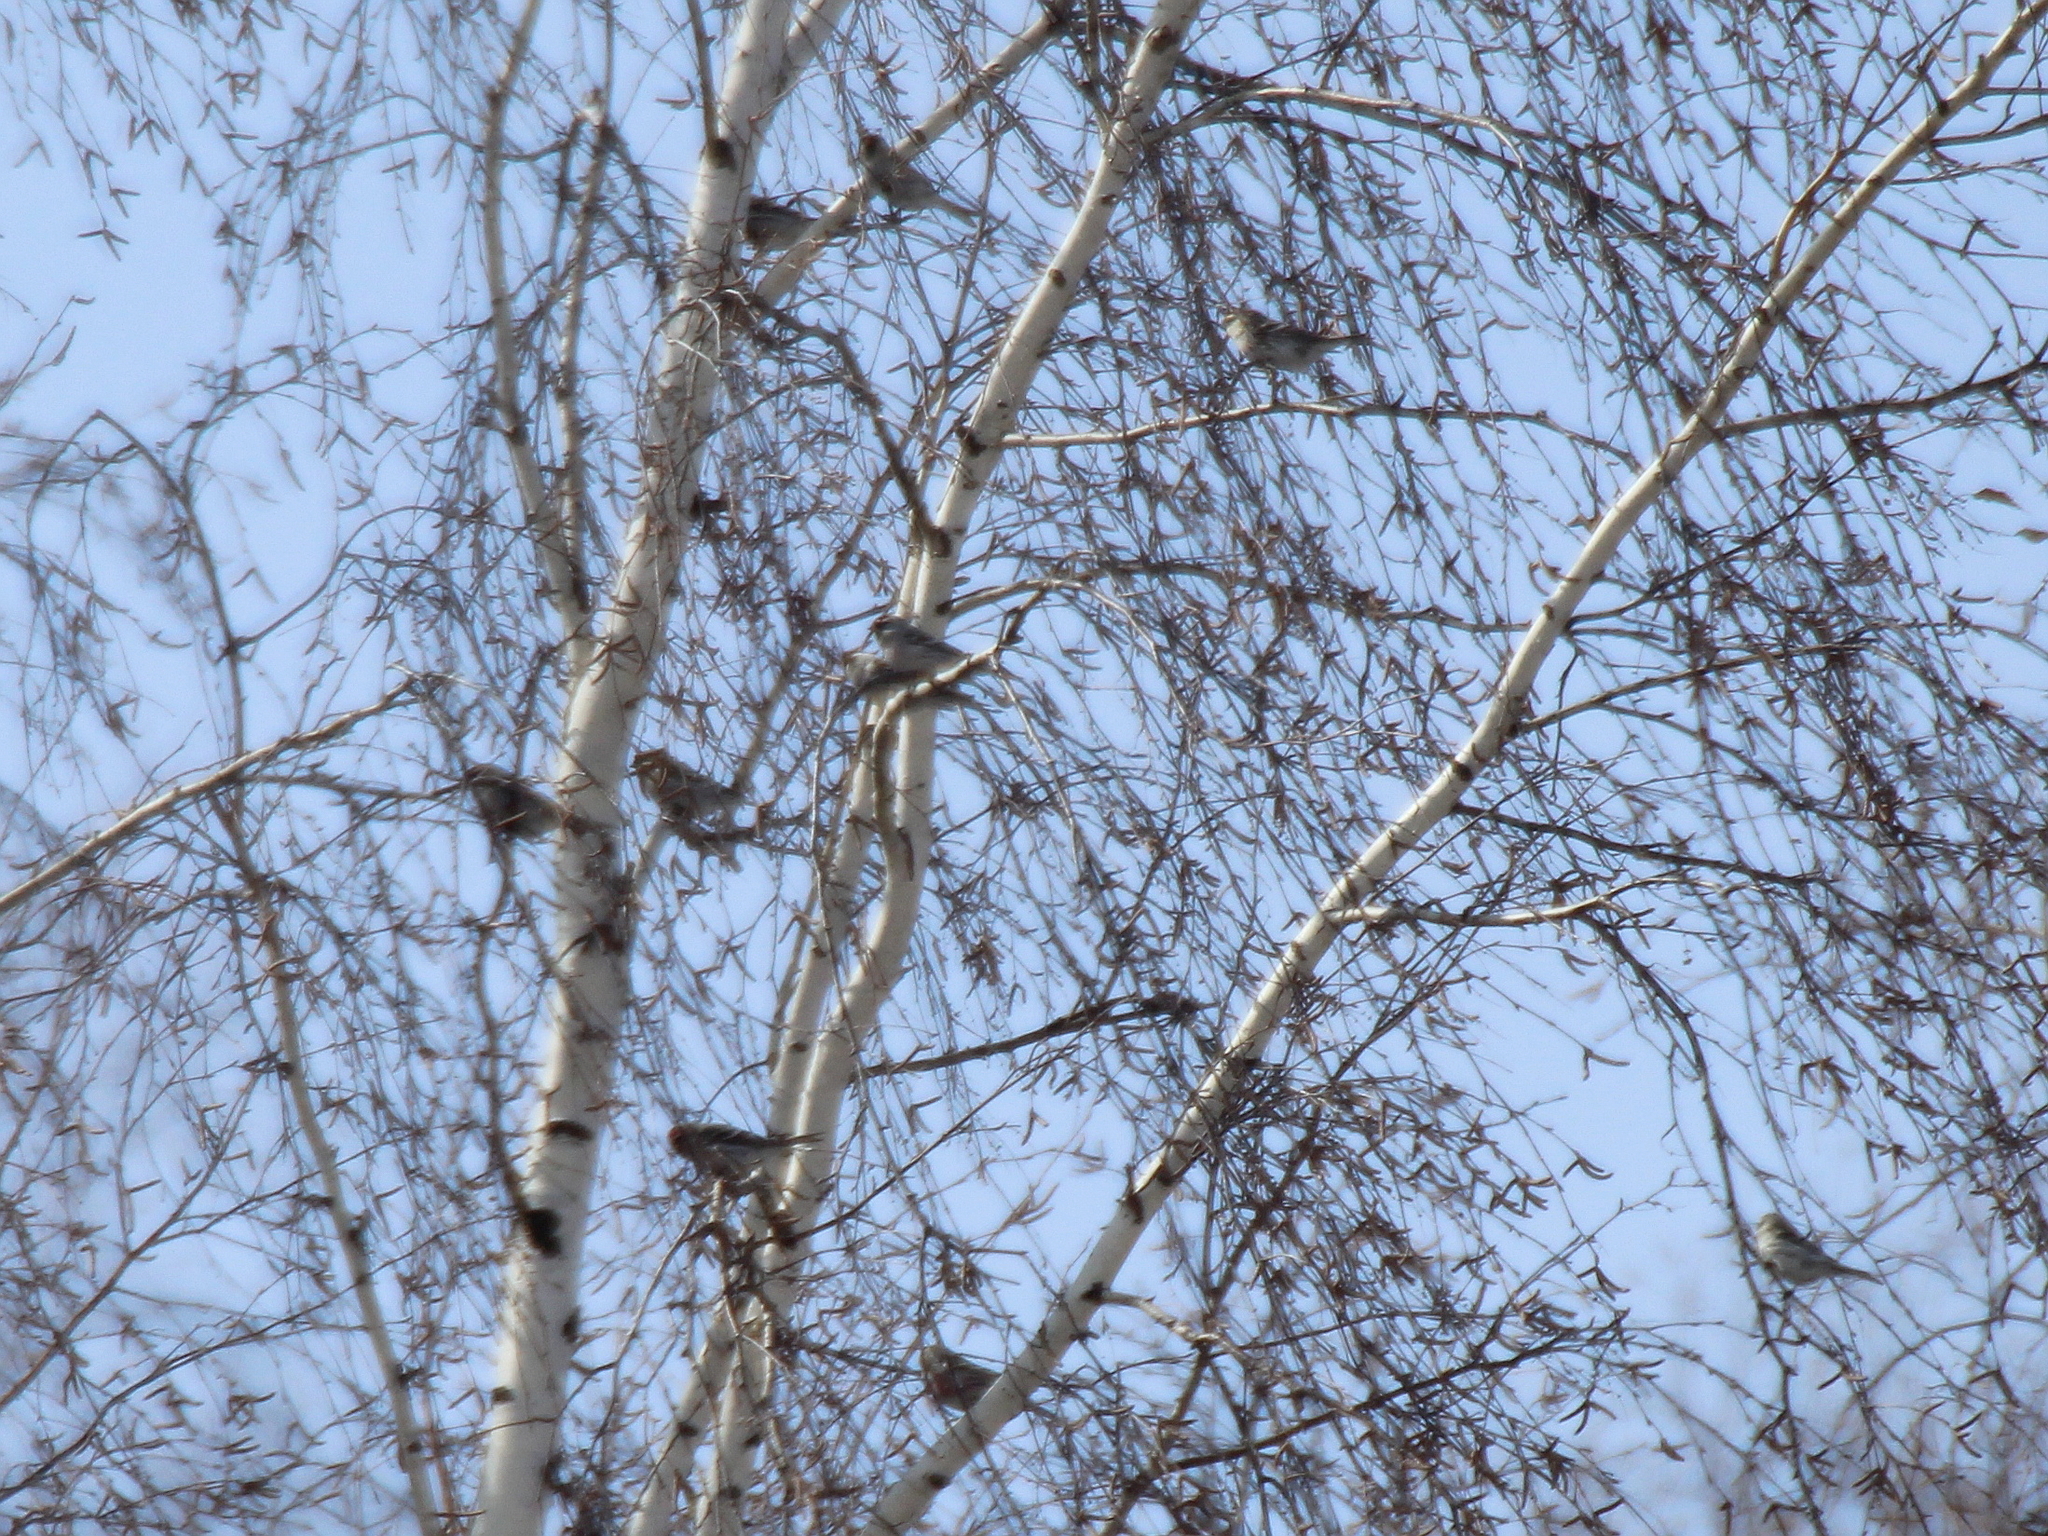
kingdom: Animalia
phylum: Chordata
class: Aves
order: Passeriformes
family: Fringillidae
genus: Acanthis
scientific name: Acanthis flammea
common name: Common redpoll
